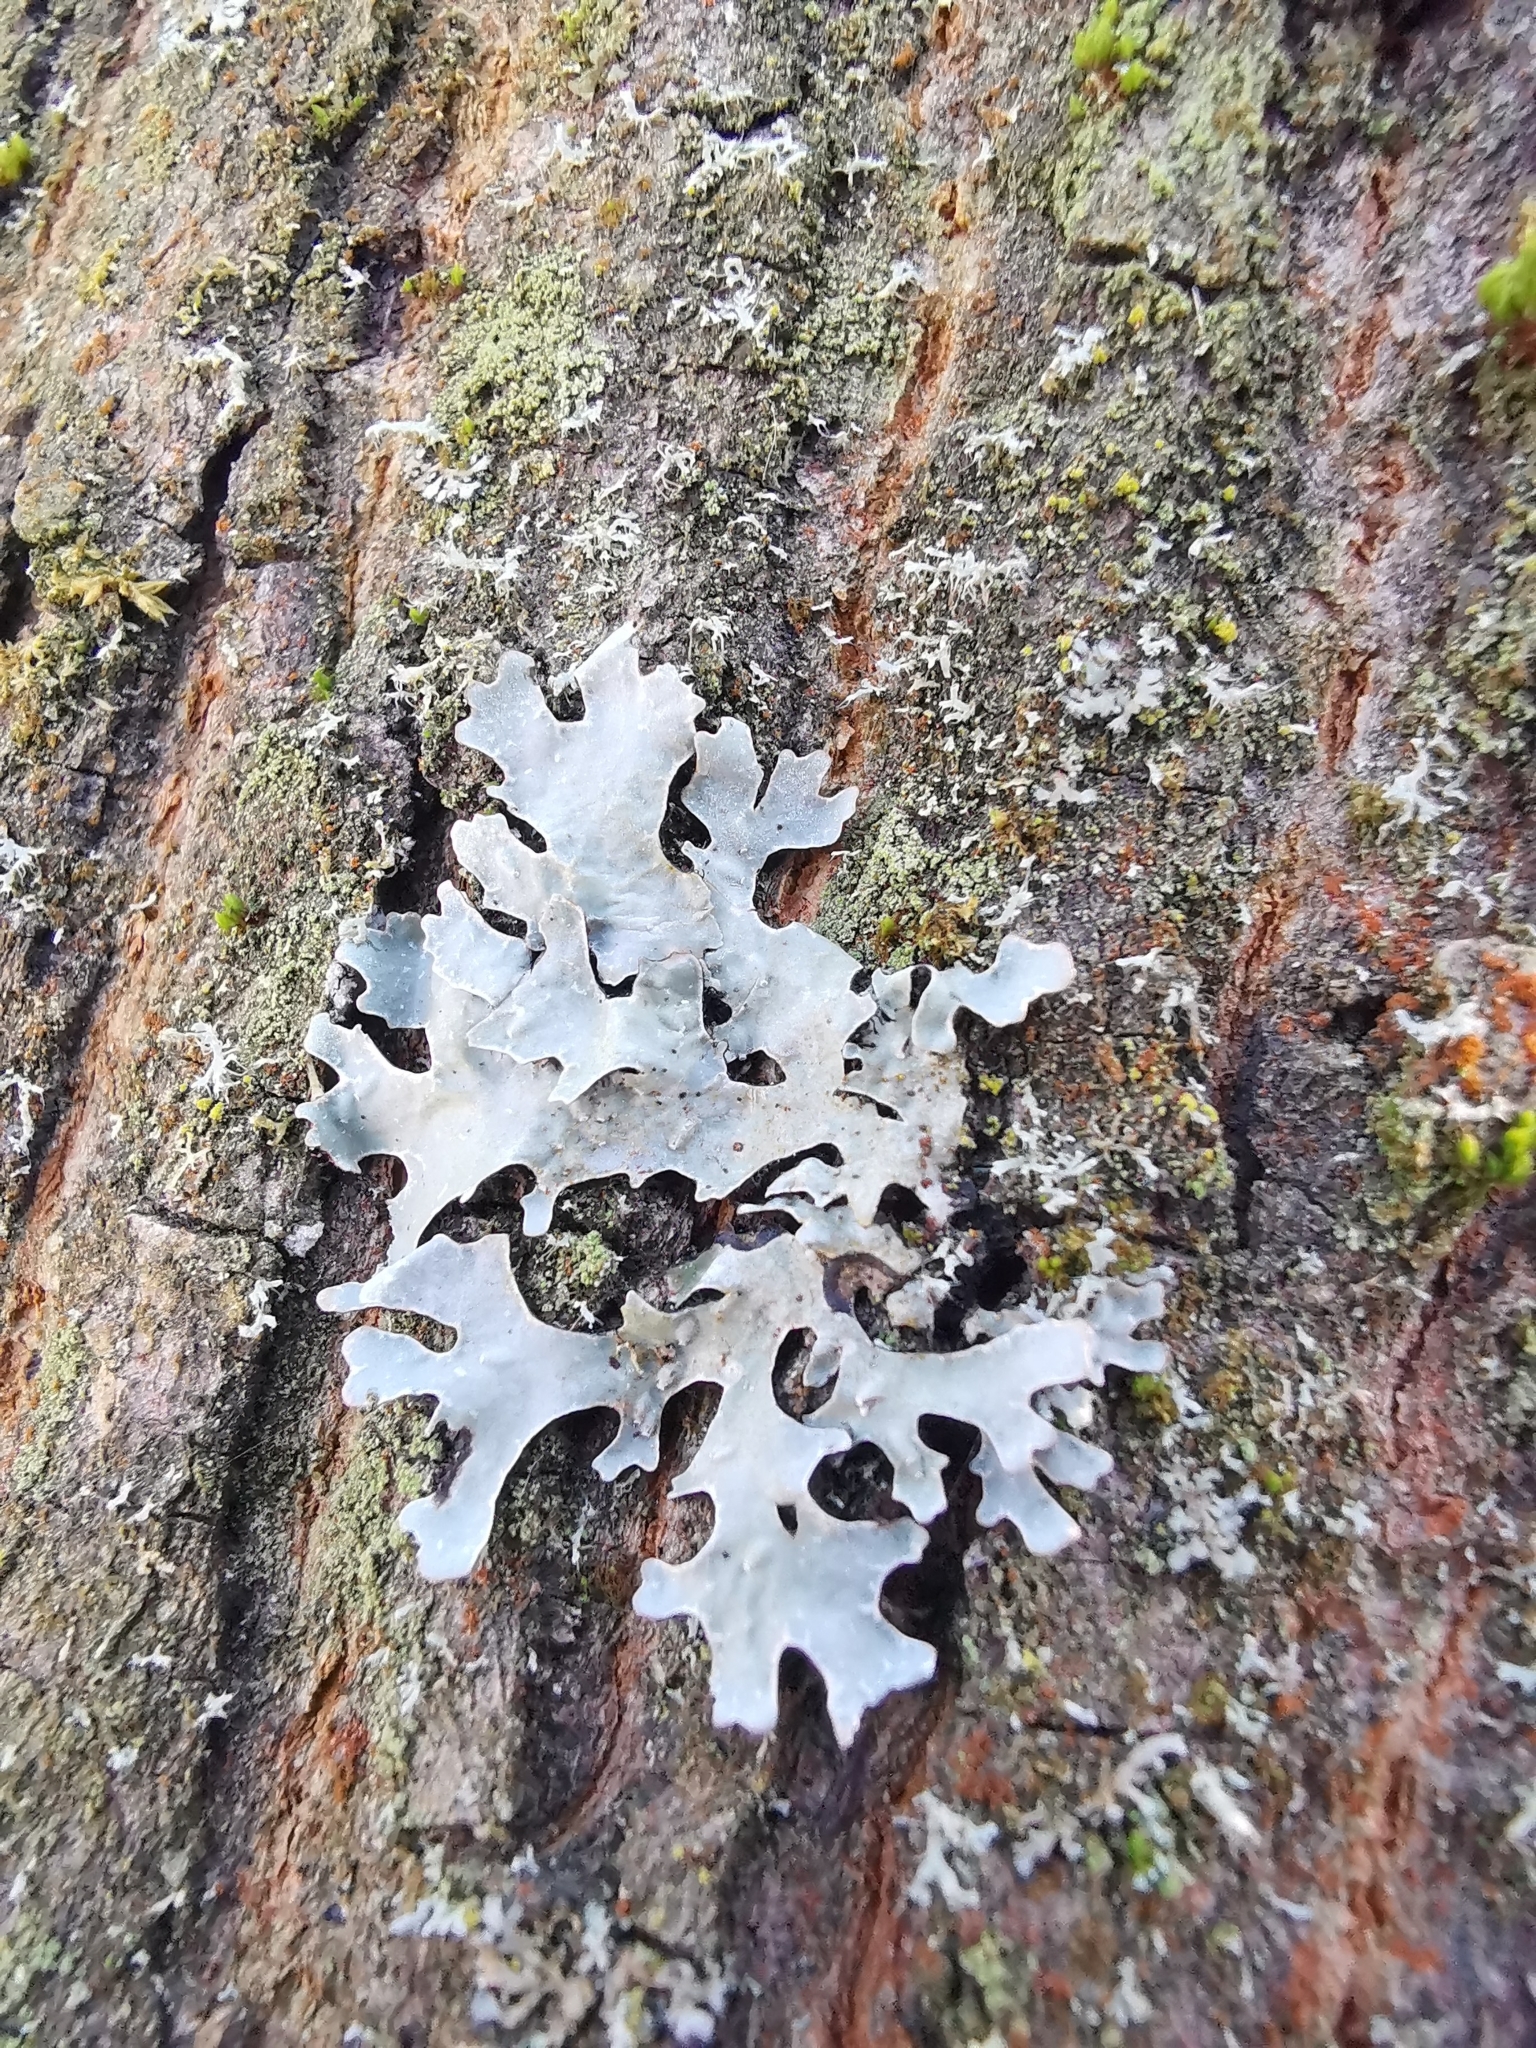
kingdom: Fungi
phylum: Ascomycota
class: Lecanoromycetes
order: Lecanorales
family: Parmeliaceae
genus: Parmelia
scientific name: Parmelia sulcata
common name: Netted shield lichen
